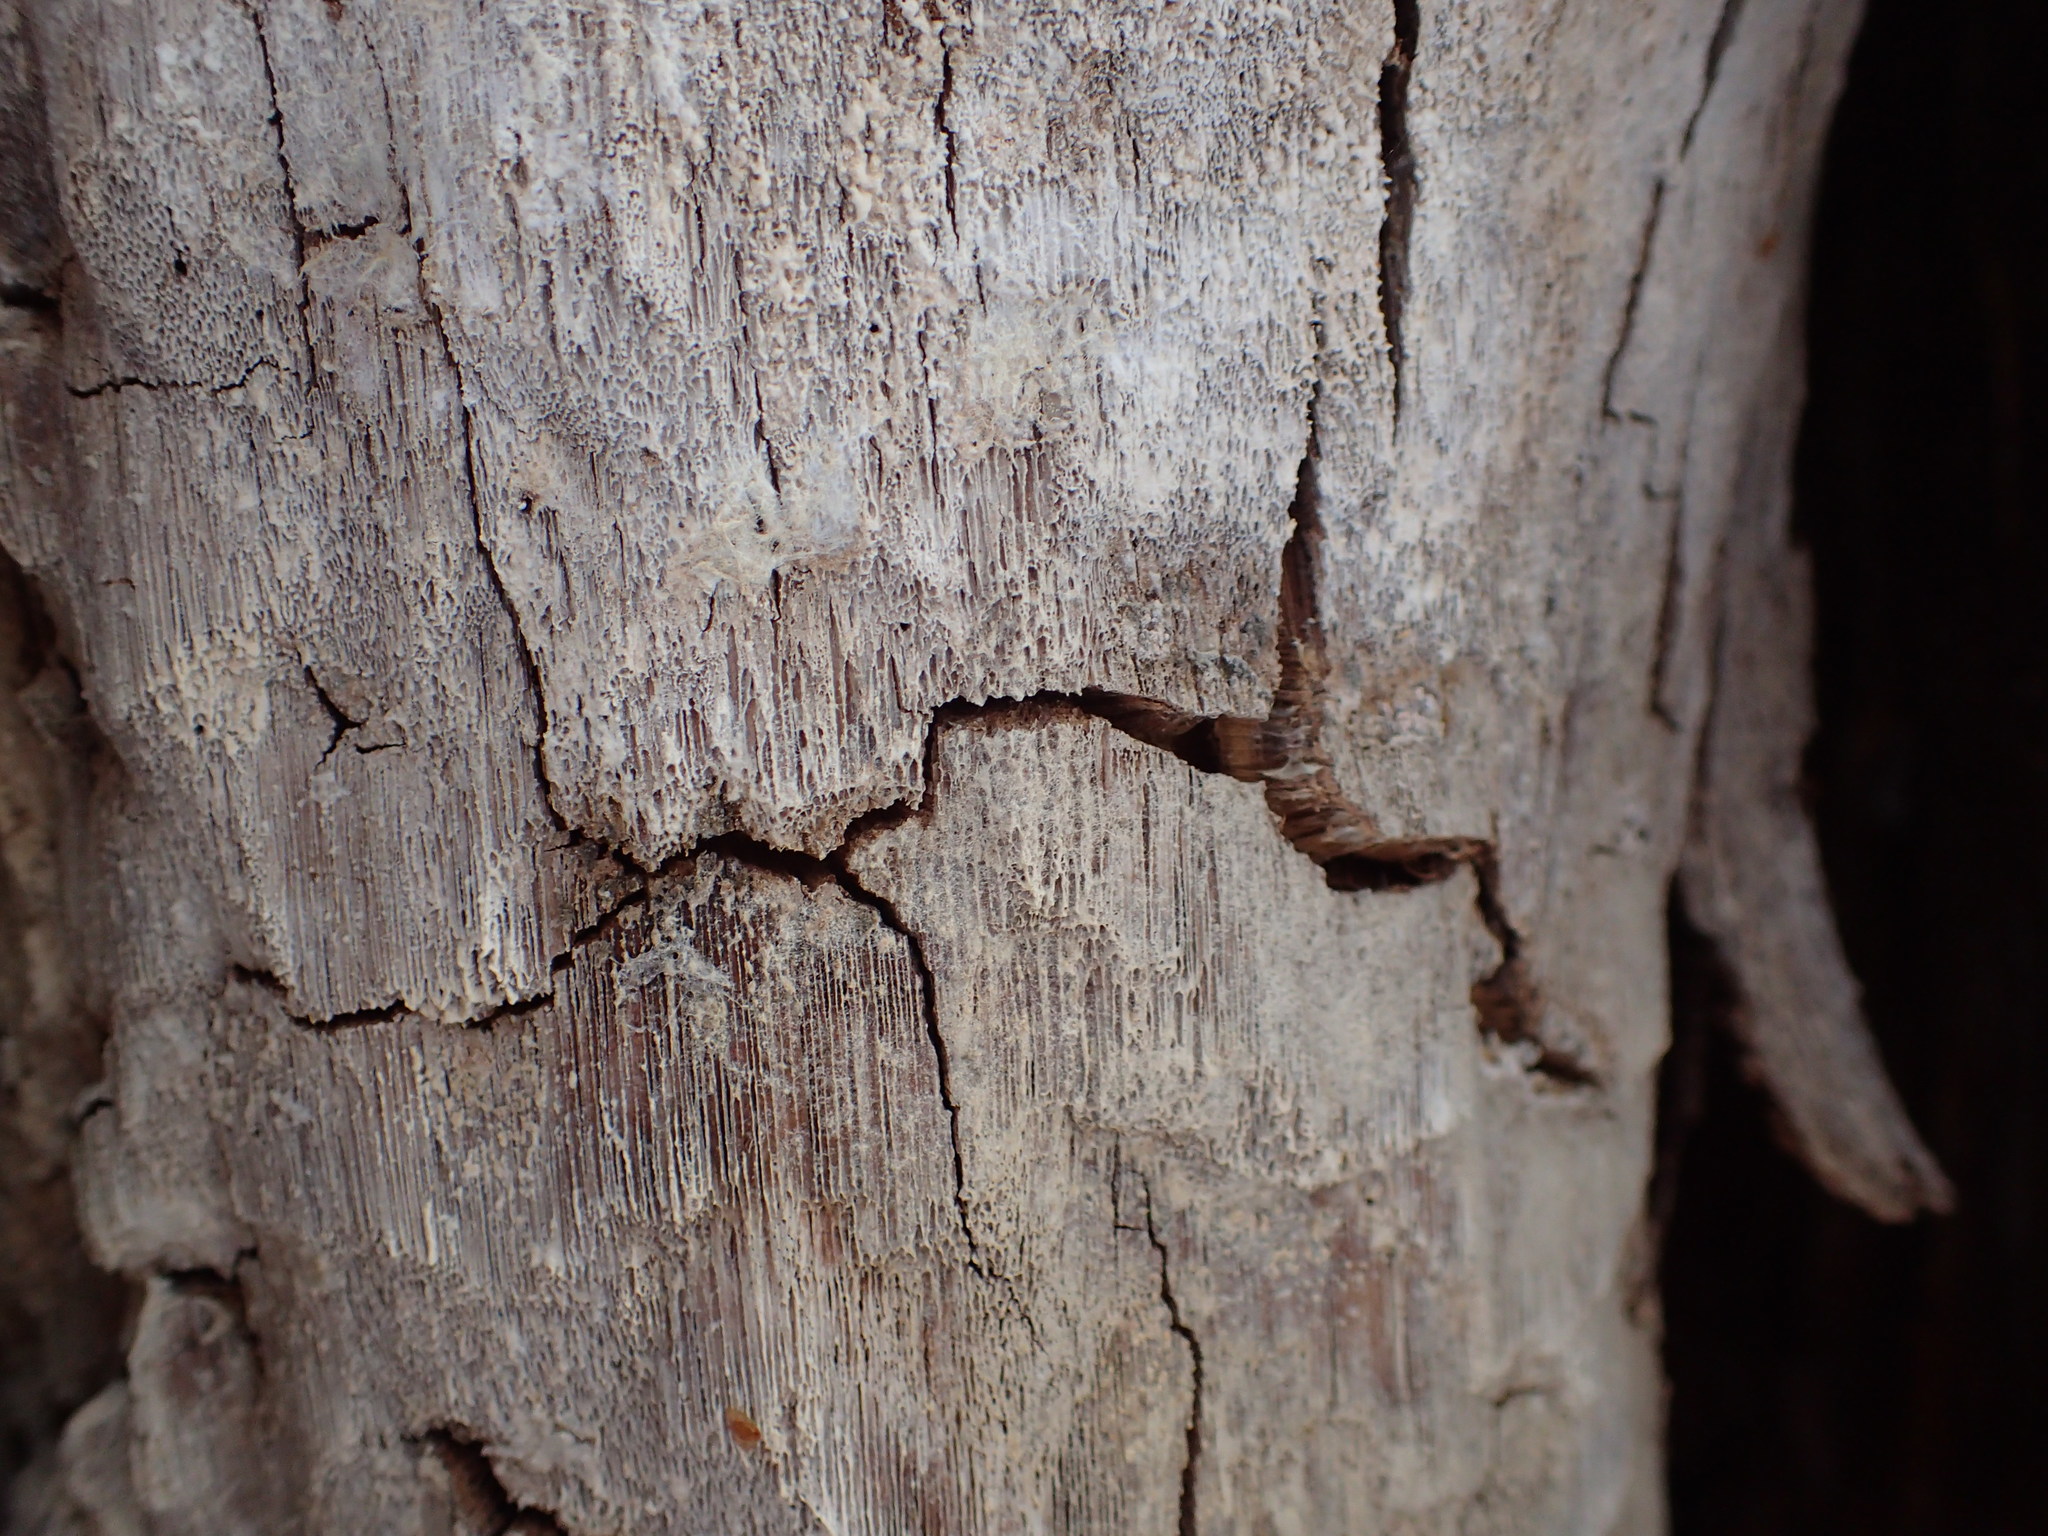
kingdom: Fungi
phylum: Basidiomycota
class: Agaricomycetes
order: Hymenochaetales
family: Hymenochaetaceae
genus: Inonotus
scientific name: Inonotus obliquus
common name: Chaga
